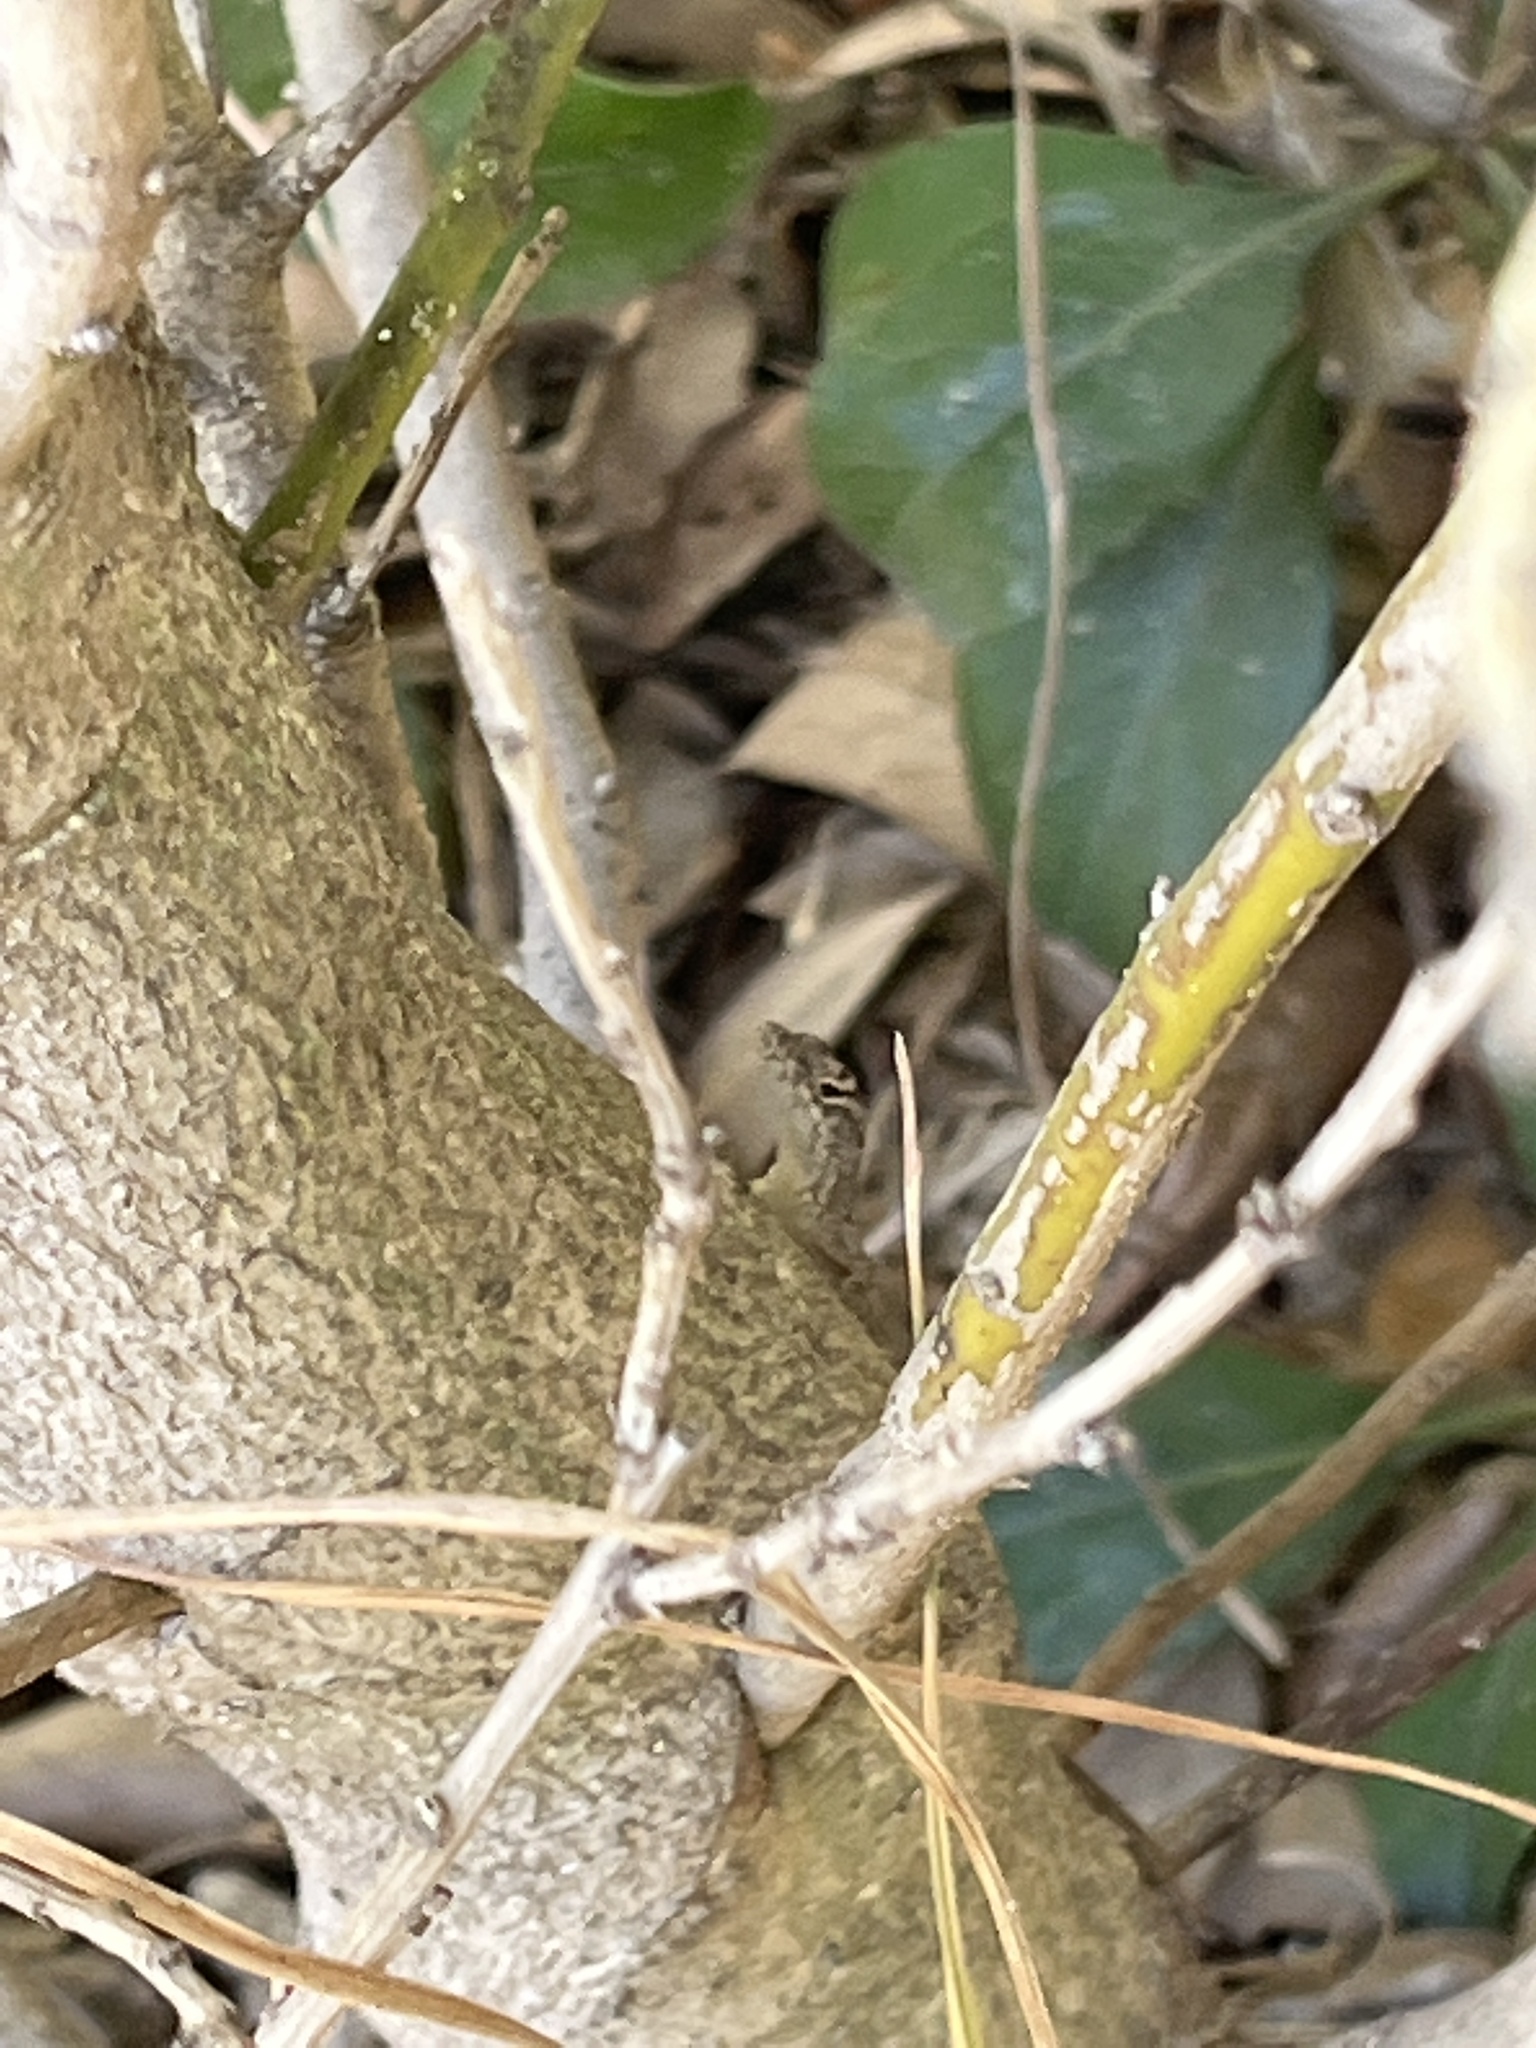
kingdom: Animalia
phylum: Chordata
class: Squamata
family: Dactyloidae
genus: Anolis
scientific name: Anolis sagrei
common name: Brown anole
